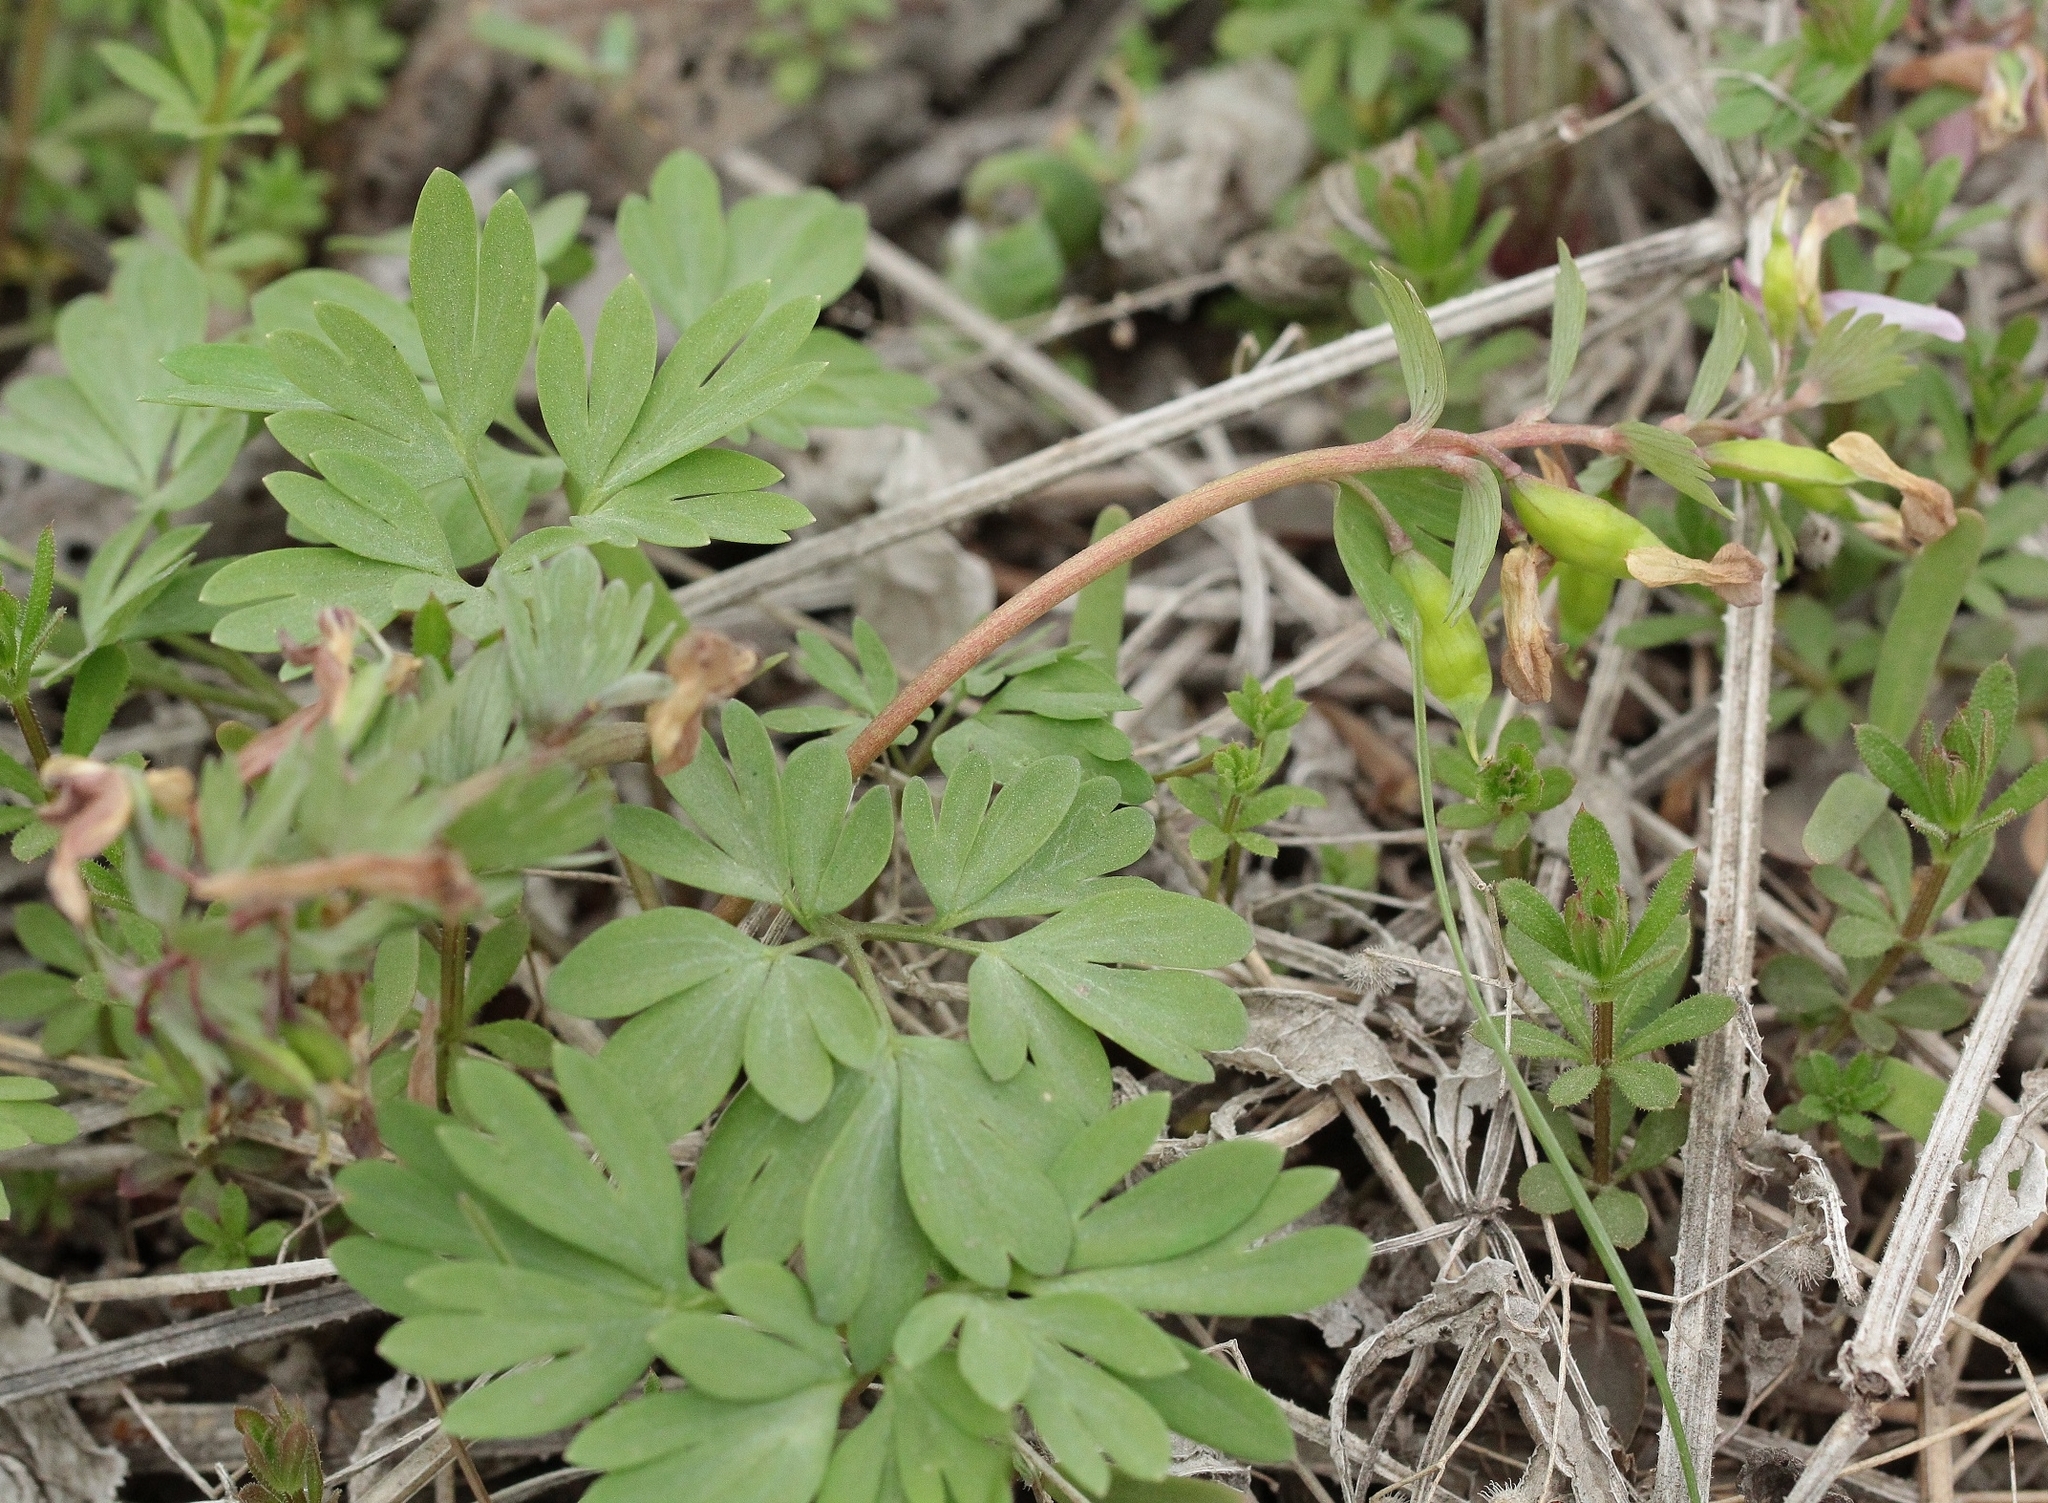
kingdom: Plantae
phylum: Tracheophyta
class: Magnoliopsida
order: Ranunculales
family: Papaveraceae
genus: Corydalis
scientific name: Corydalis solida
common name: Bird-in-a-bush
